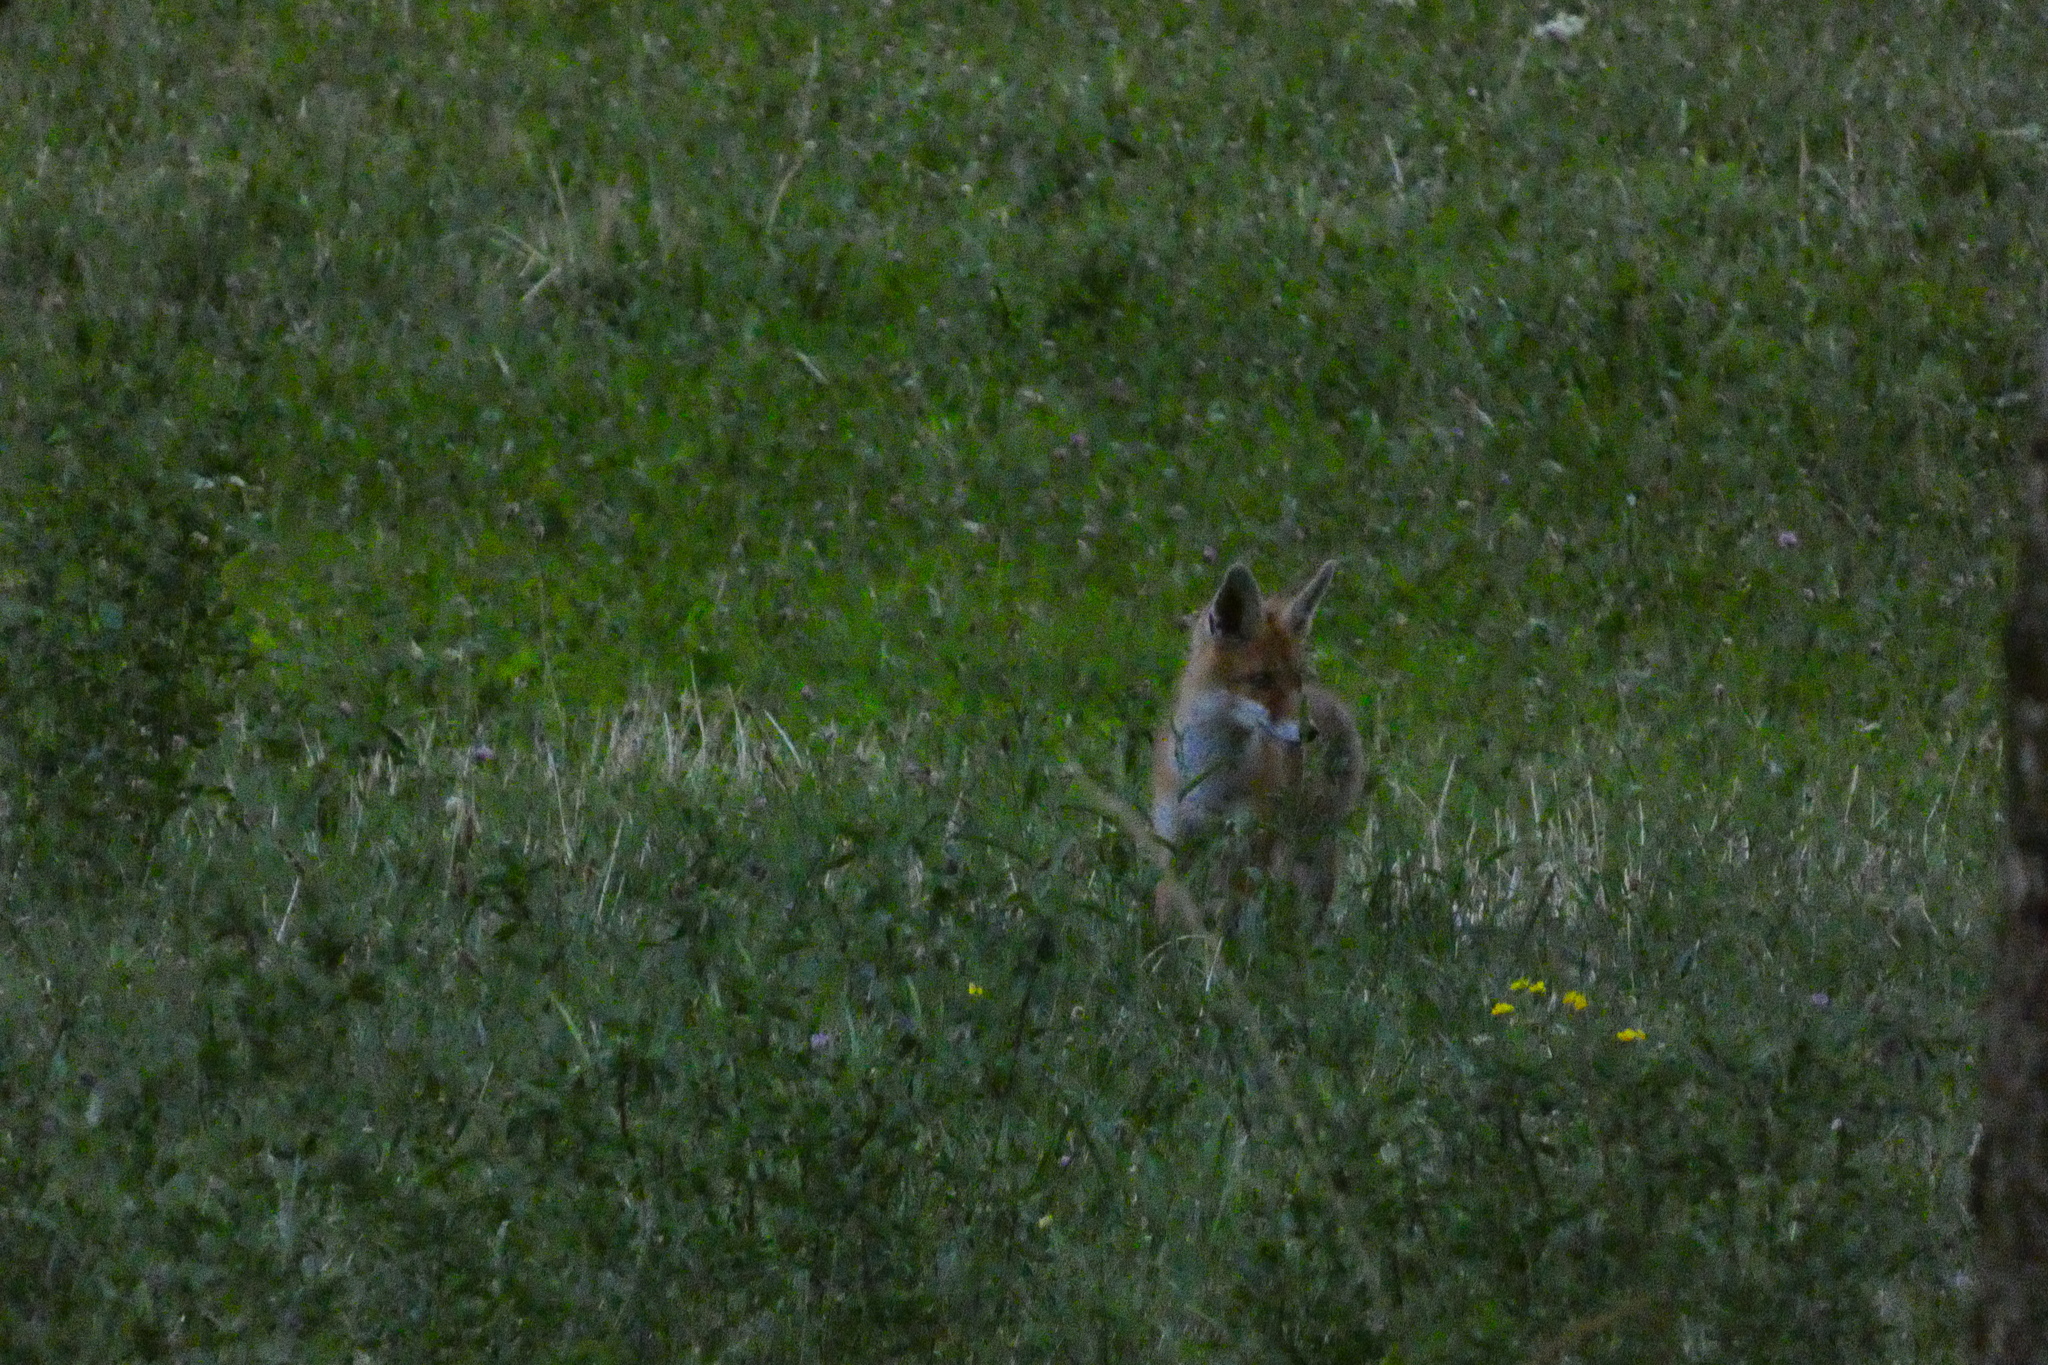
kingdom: Animalia
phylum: Chordata
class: Mammalia
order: Carnivora
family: Canidae
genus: Vulpes
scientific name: Vulpes vulpes
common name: Red fox
